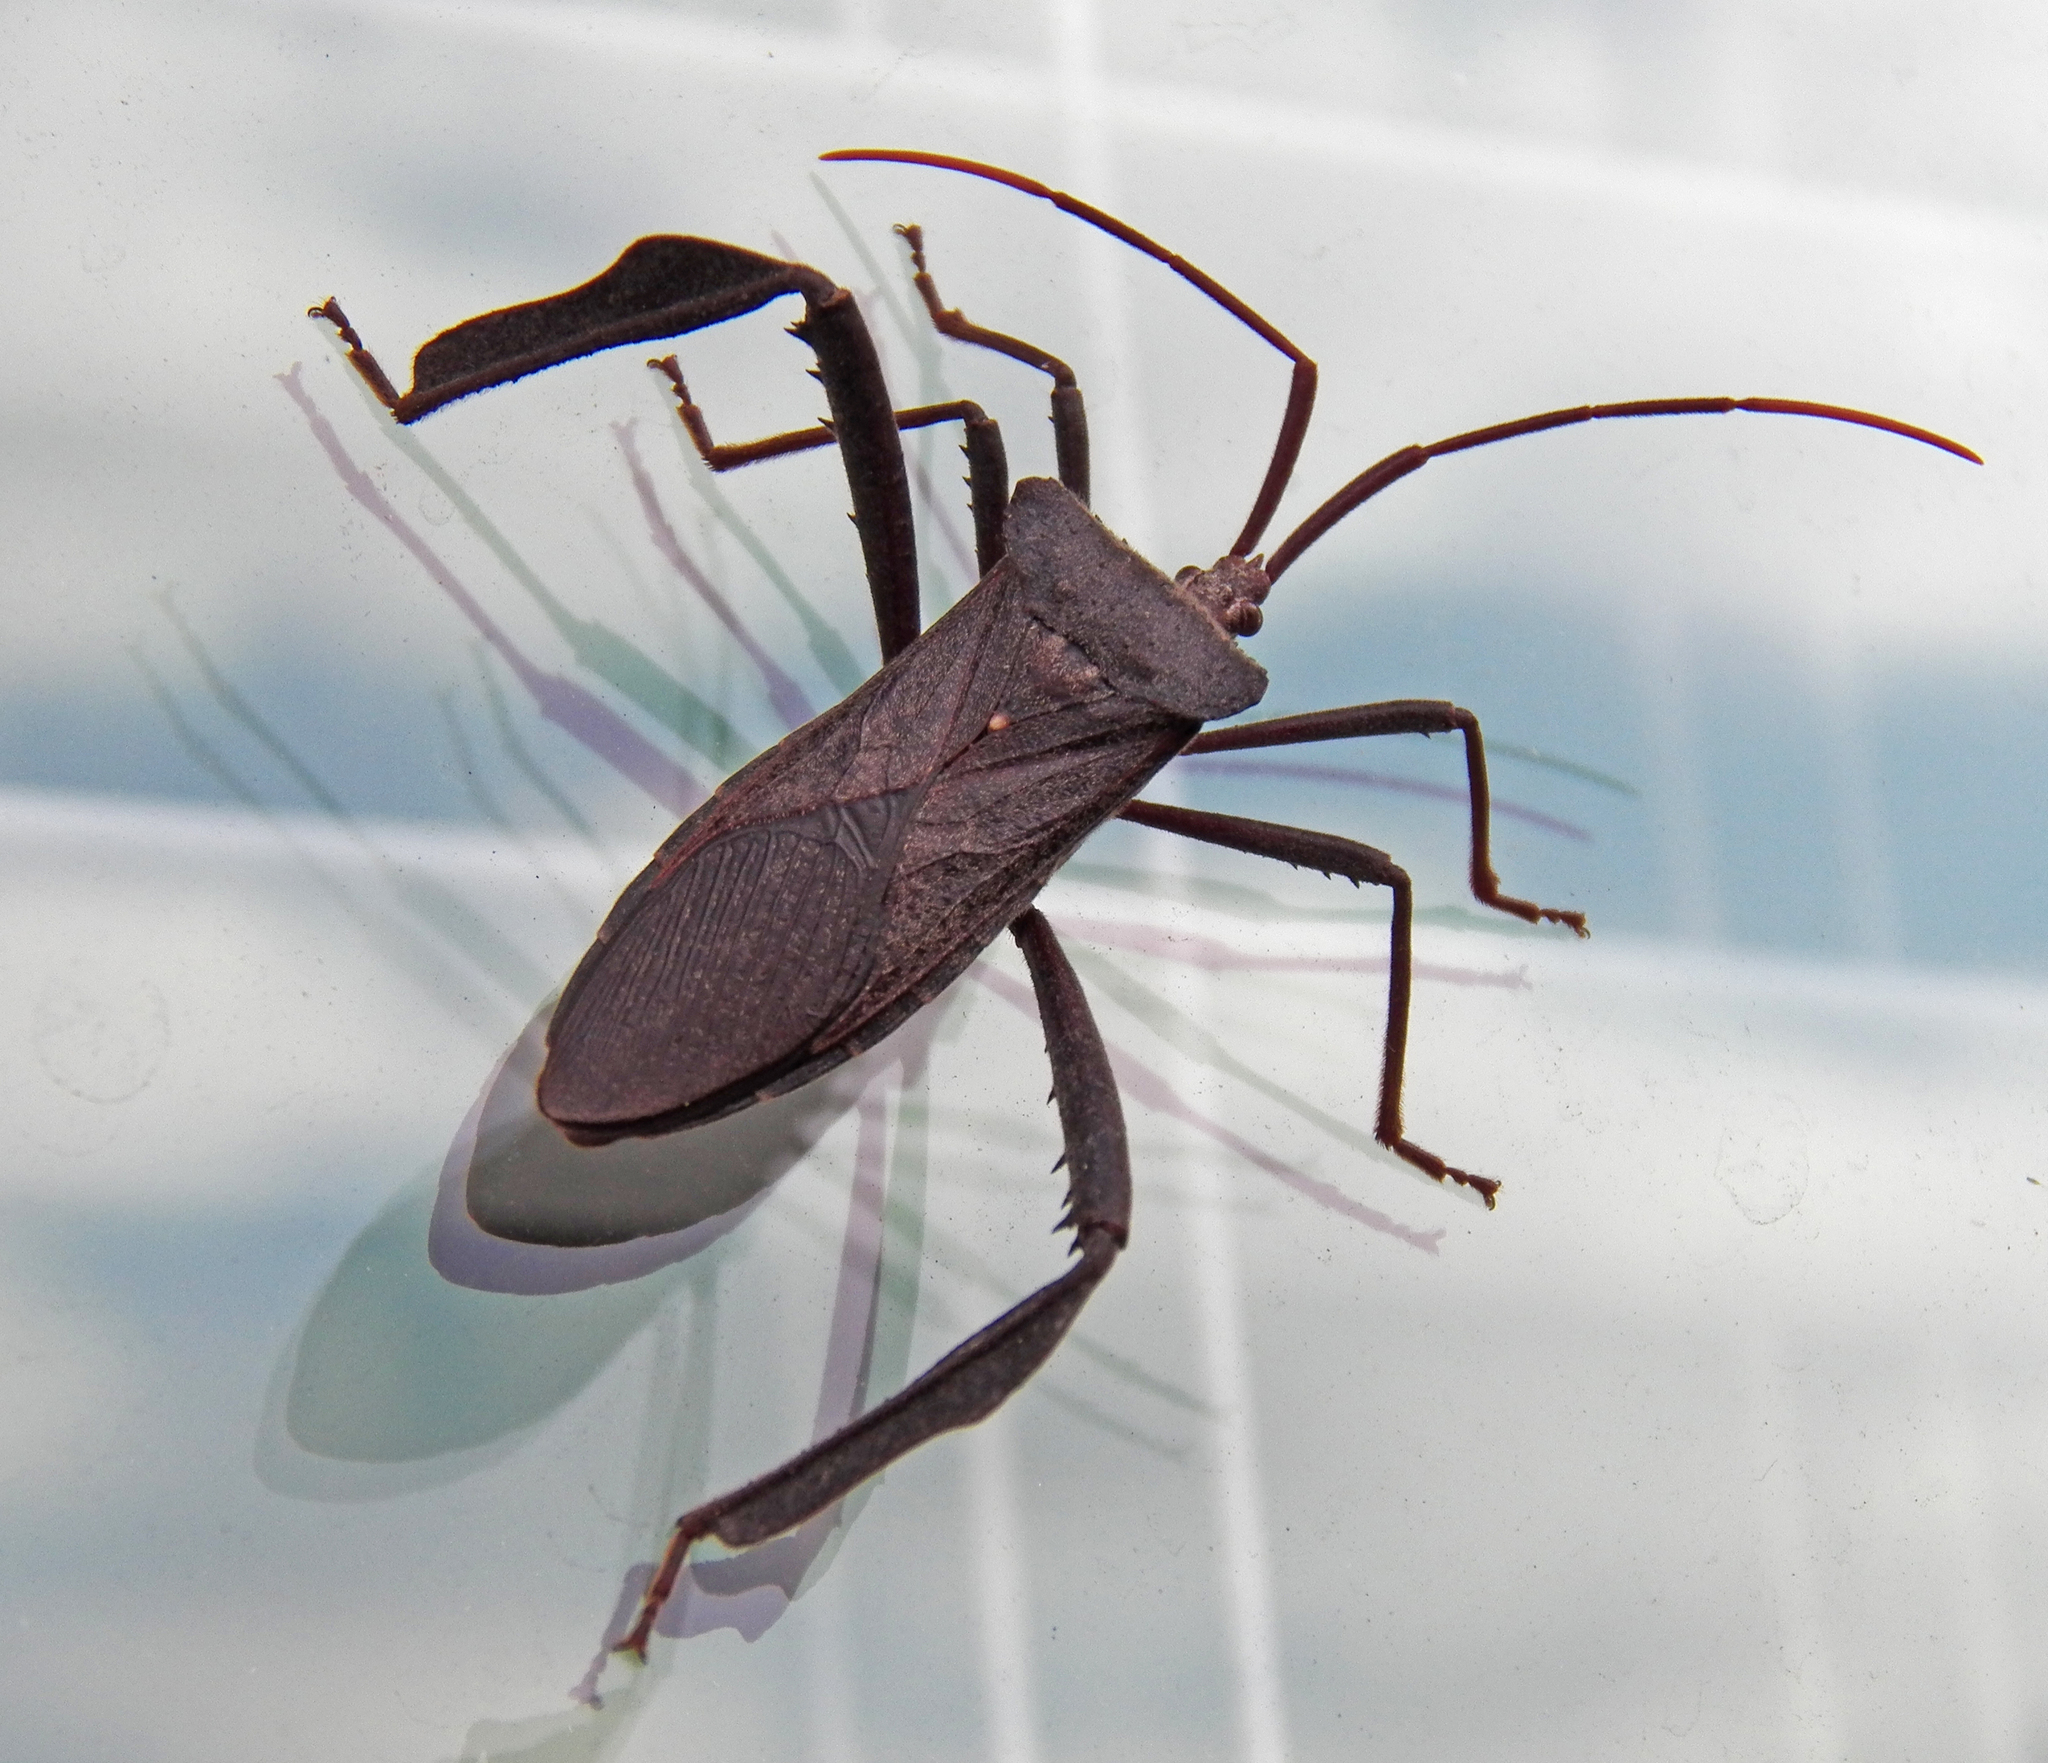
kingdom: Animalia
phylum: Arthropoda
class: Insecta
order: Hemiptera
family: Coreidae
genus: Acanthocephala
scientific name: Acanthocephala declivis
